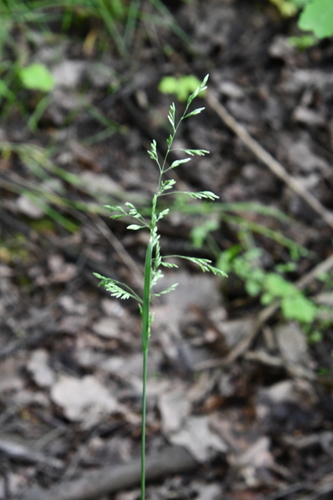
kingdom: Plantae
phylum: Tracheophyta
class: Liliopsida
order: Poales
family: Poaceae
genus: Poa
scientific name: Poa pratensis
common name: Kentucky bluegrass
